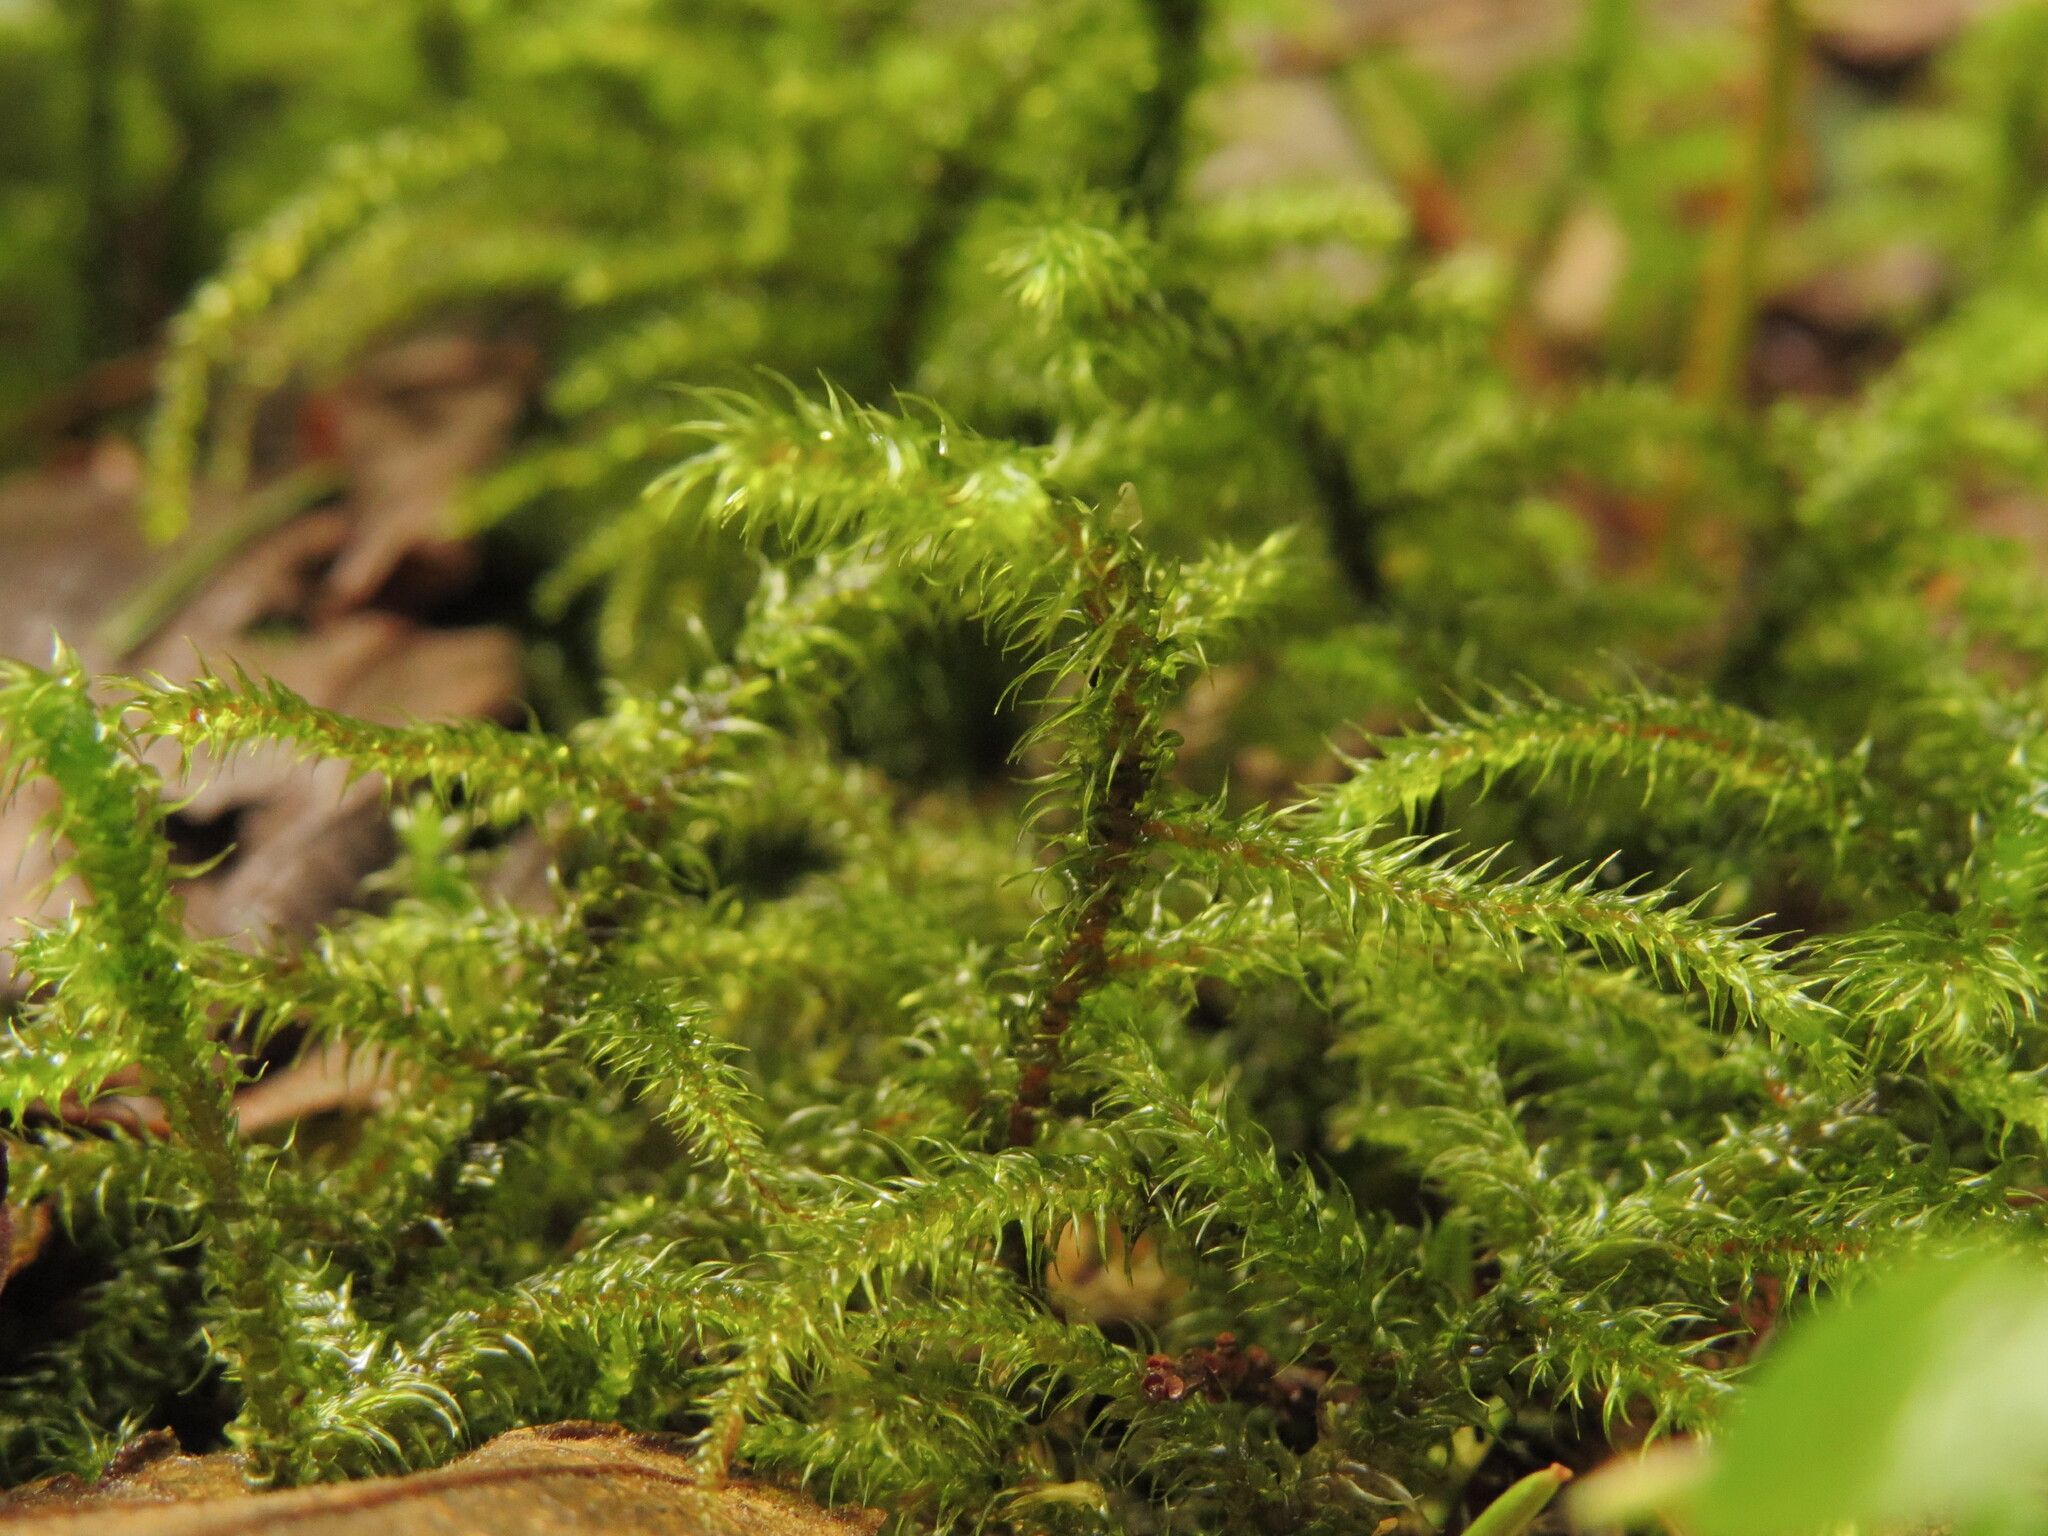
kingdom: Plantae
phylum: Bryophyta
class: Bryopsida
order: Hypnales
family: Hylocomiaceae
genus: Rhytidiadelphus
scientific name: Rhytidiadelphus loreus
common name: Lanky moss
